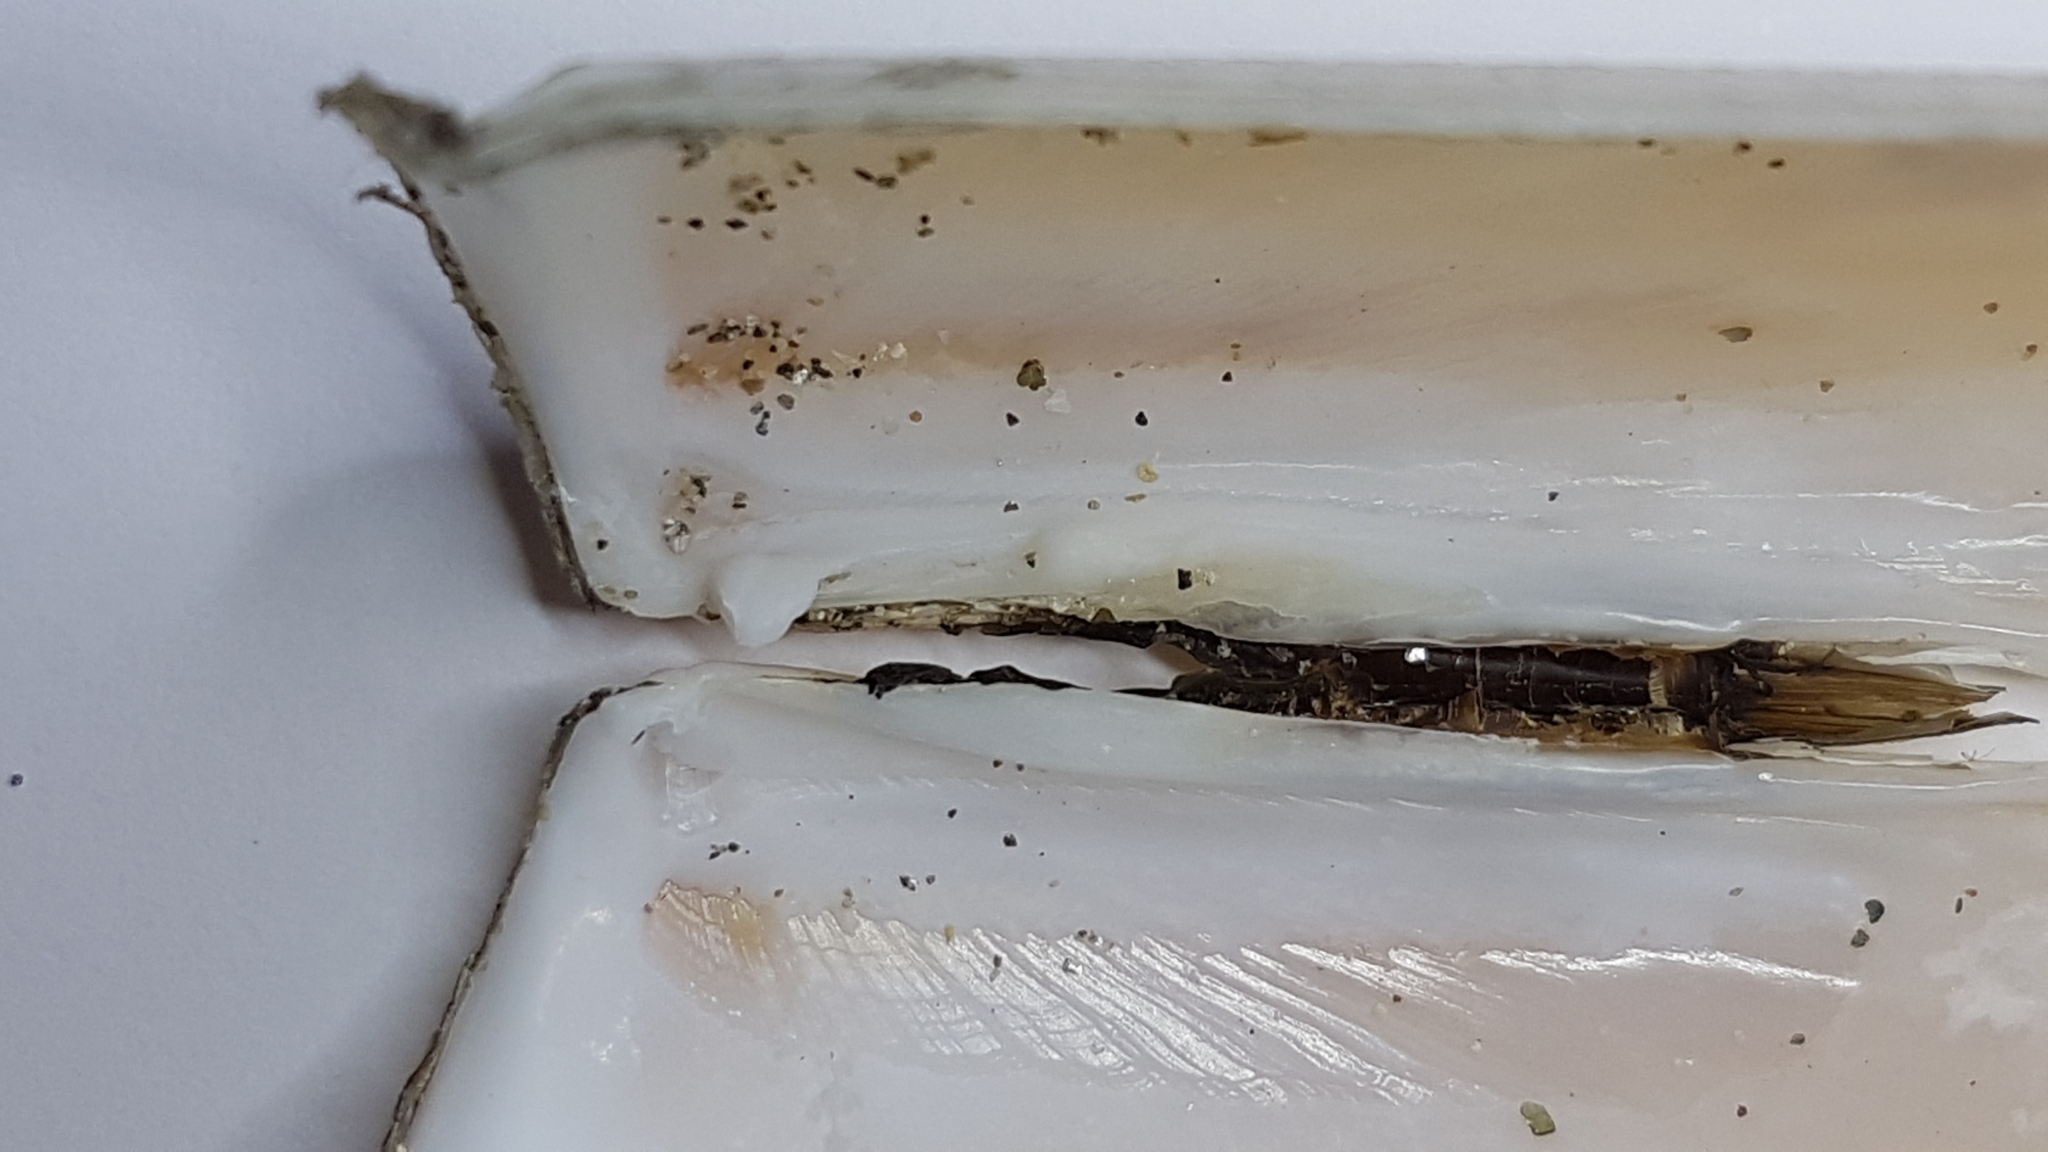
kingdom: Animalia
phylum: Mollusca
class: Bivalvia
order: Adapedonta
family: Solenidae
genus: Solen
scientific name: Solen marginatus
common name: Grooved razor shell
